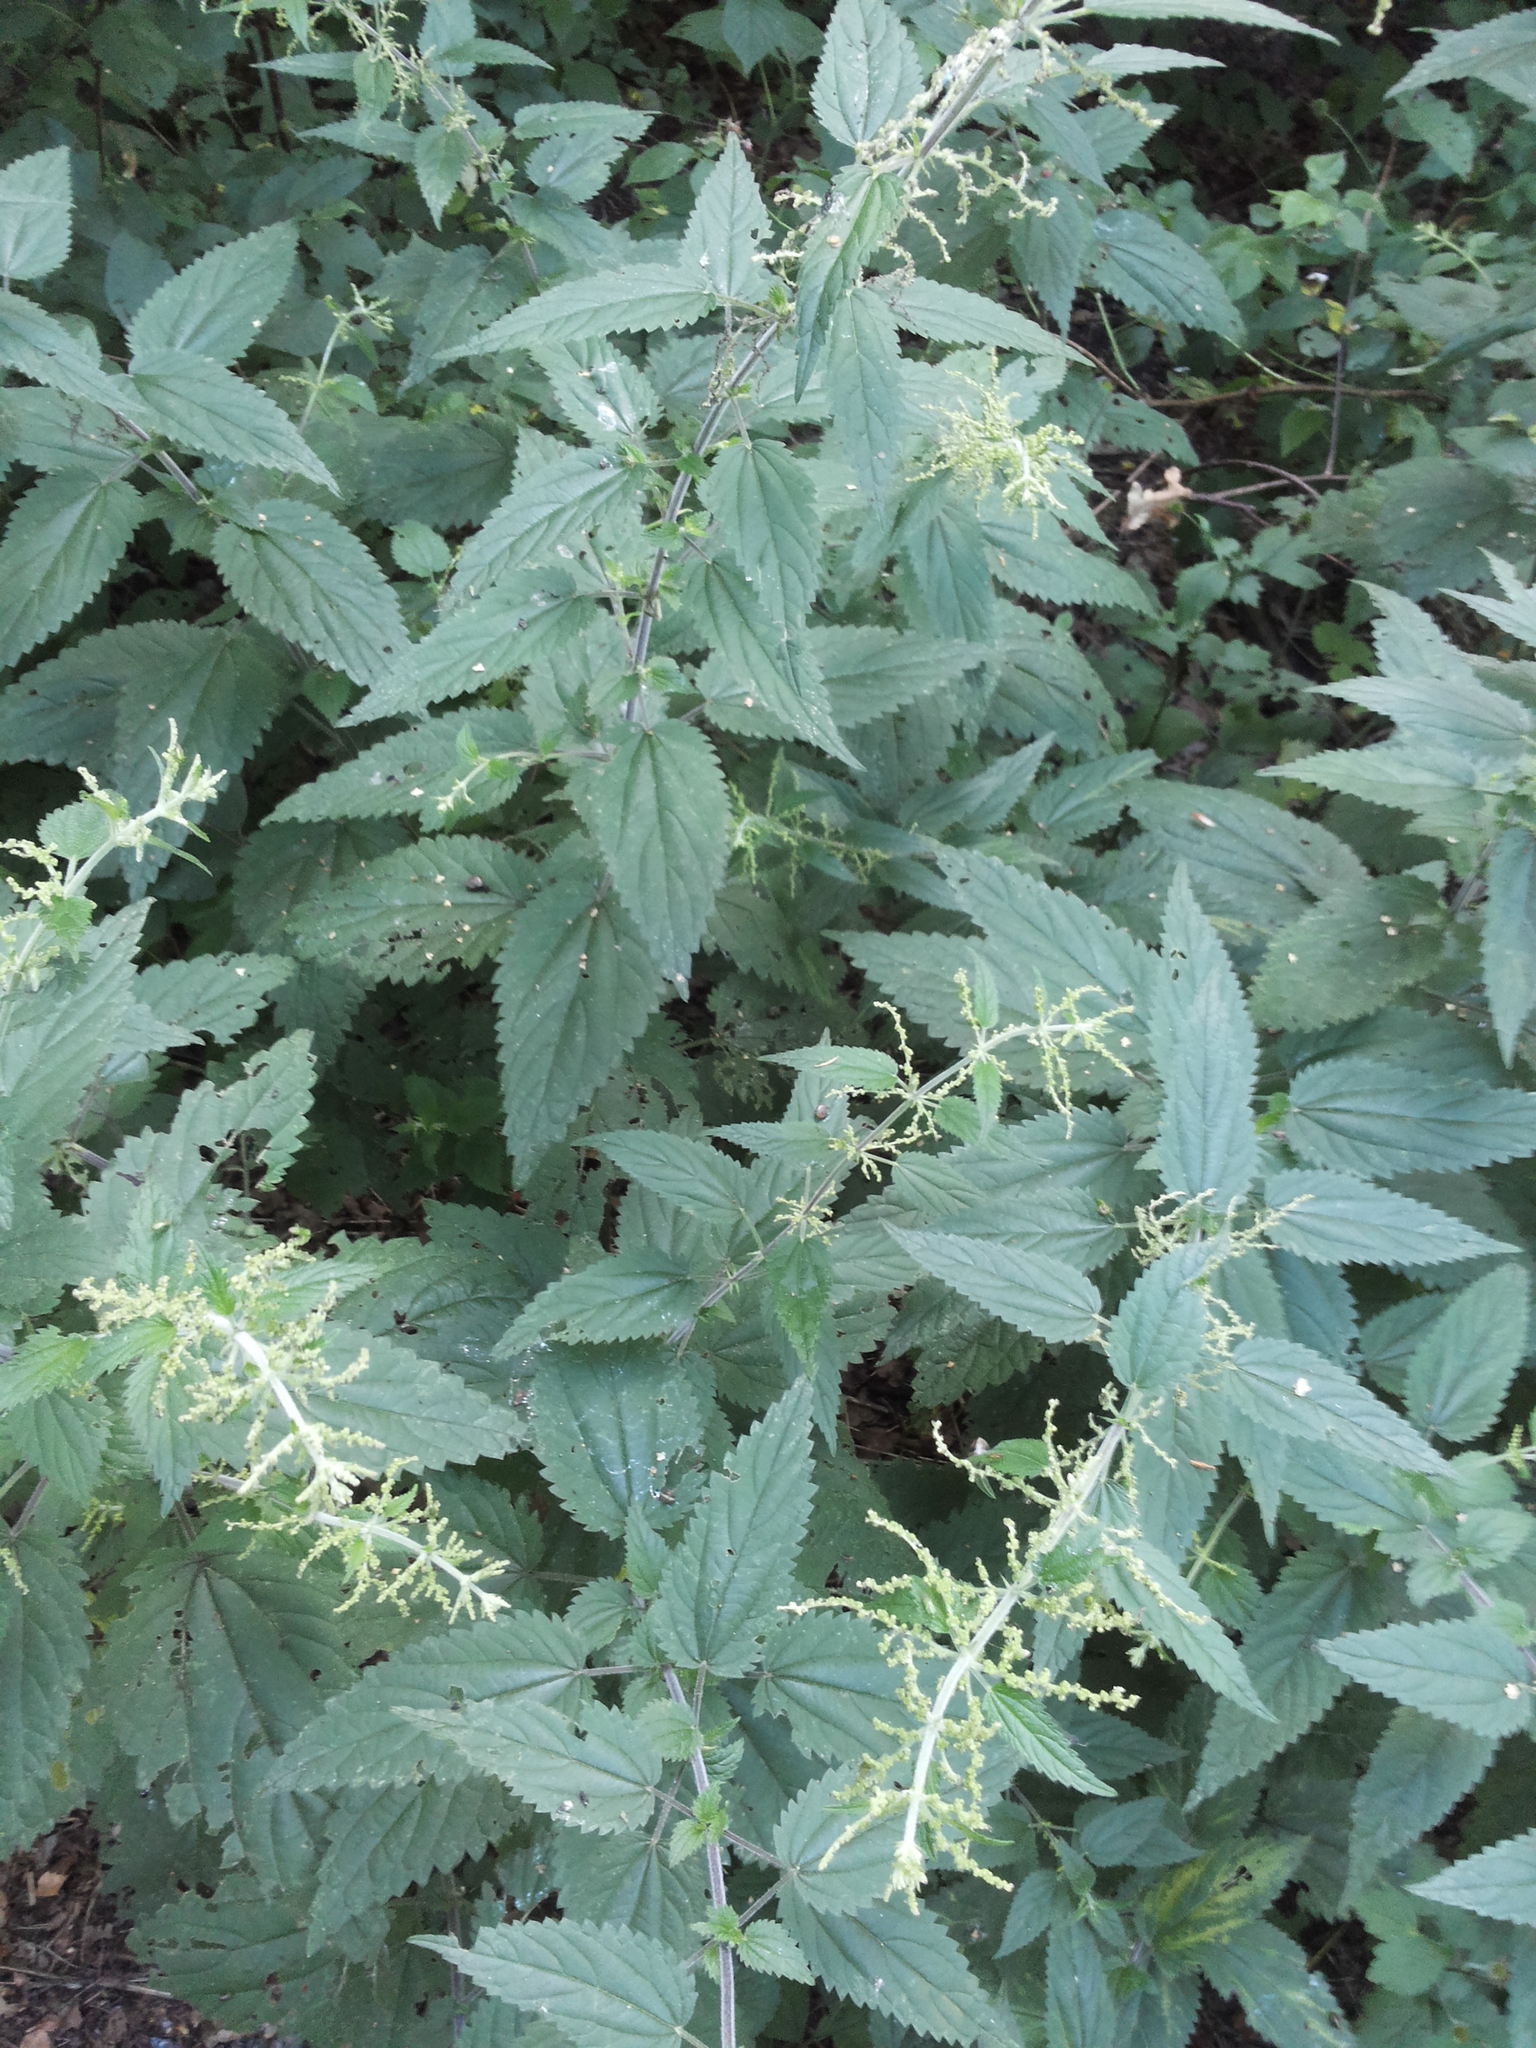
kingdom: Plantae
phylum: Tracheophyta
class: Magnoliopsida
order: Rosales
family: Urticaceae
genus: Urtica
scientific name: Urtica dioica
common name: Common nettle
